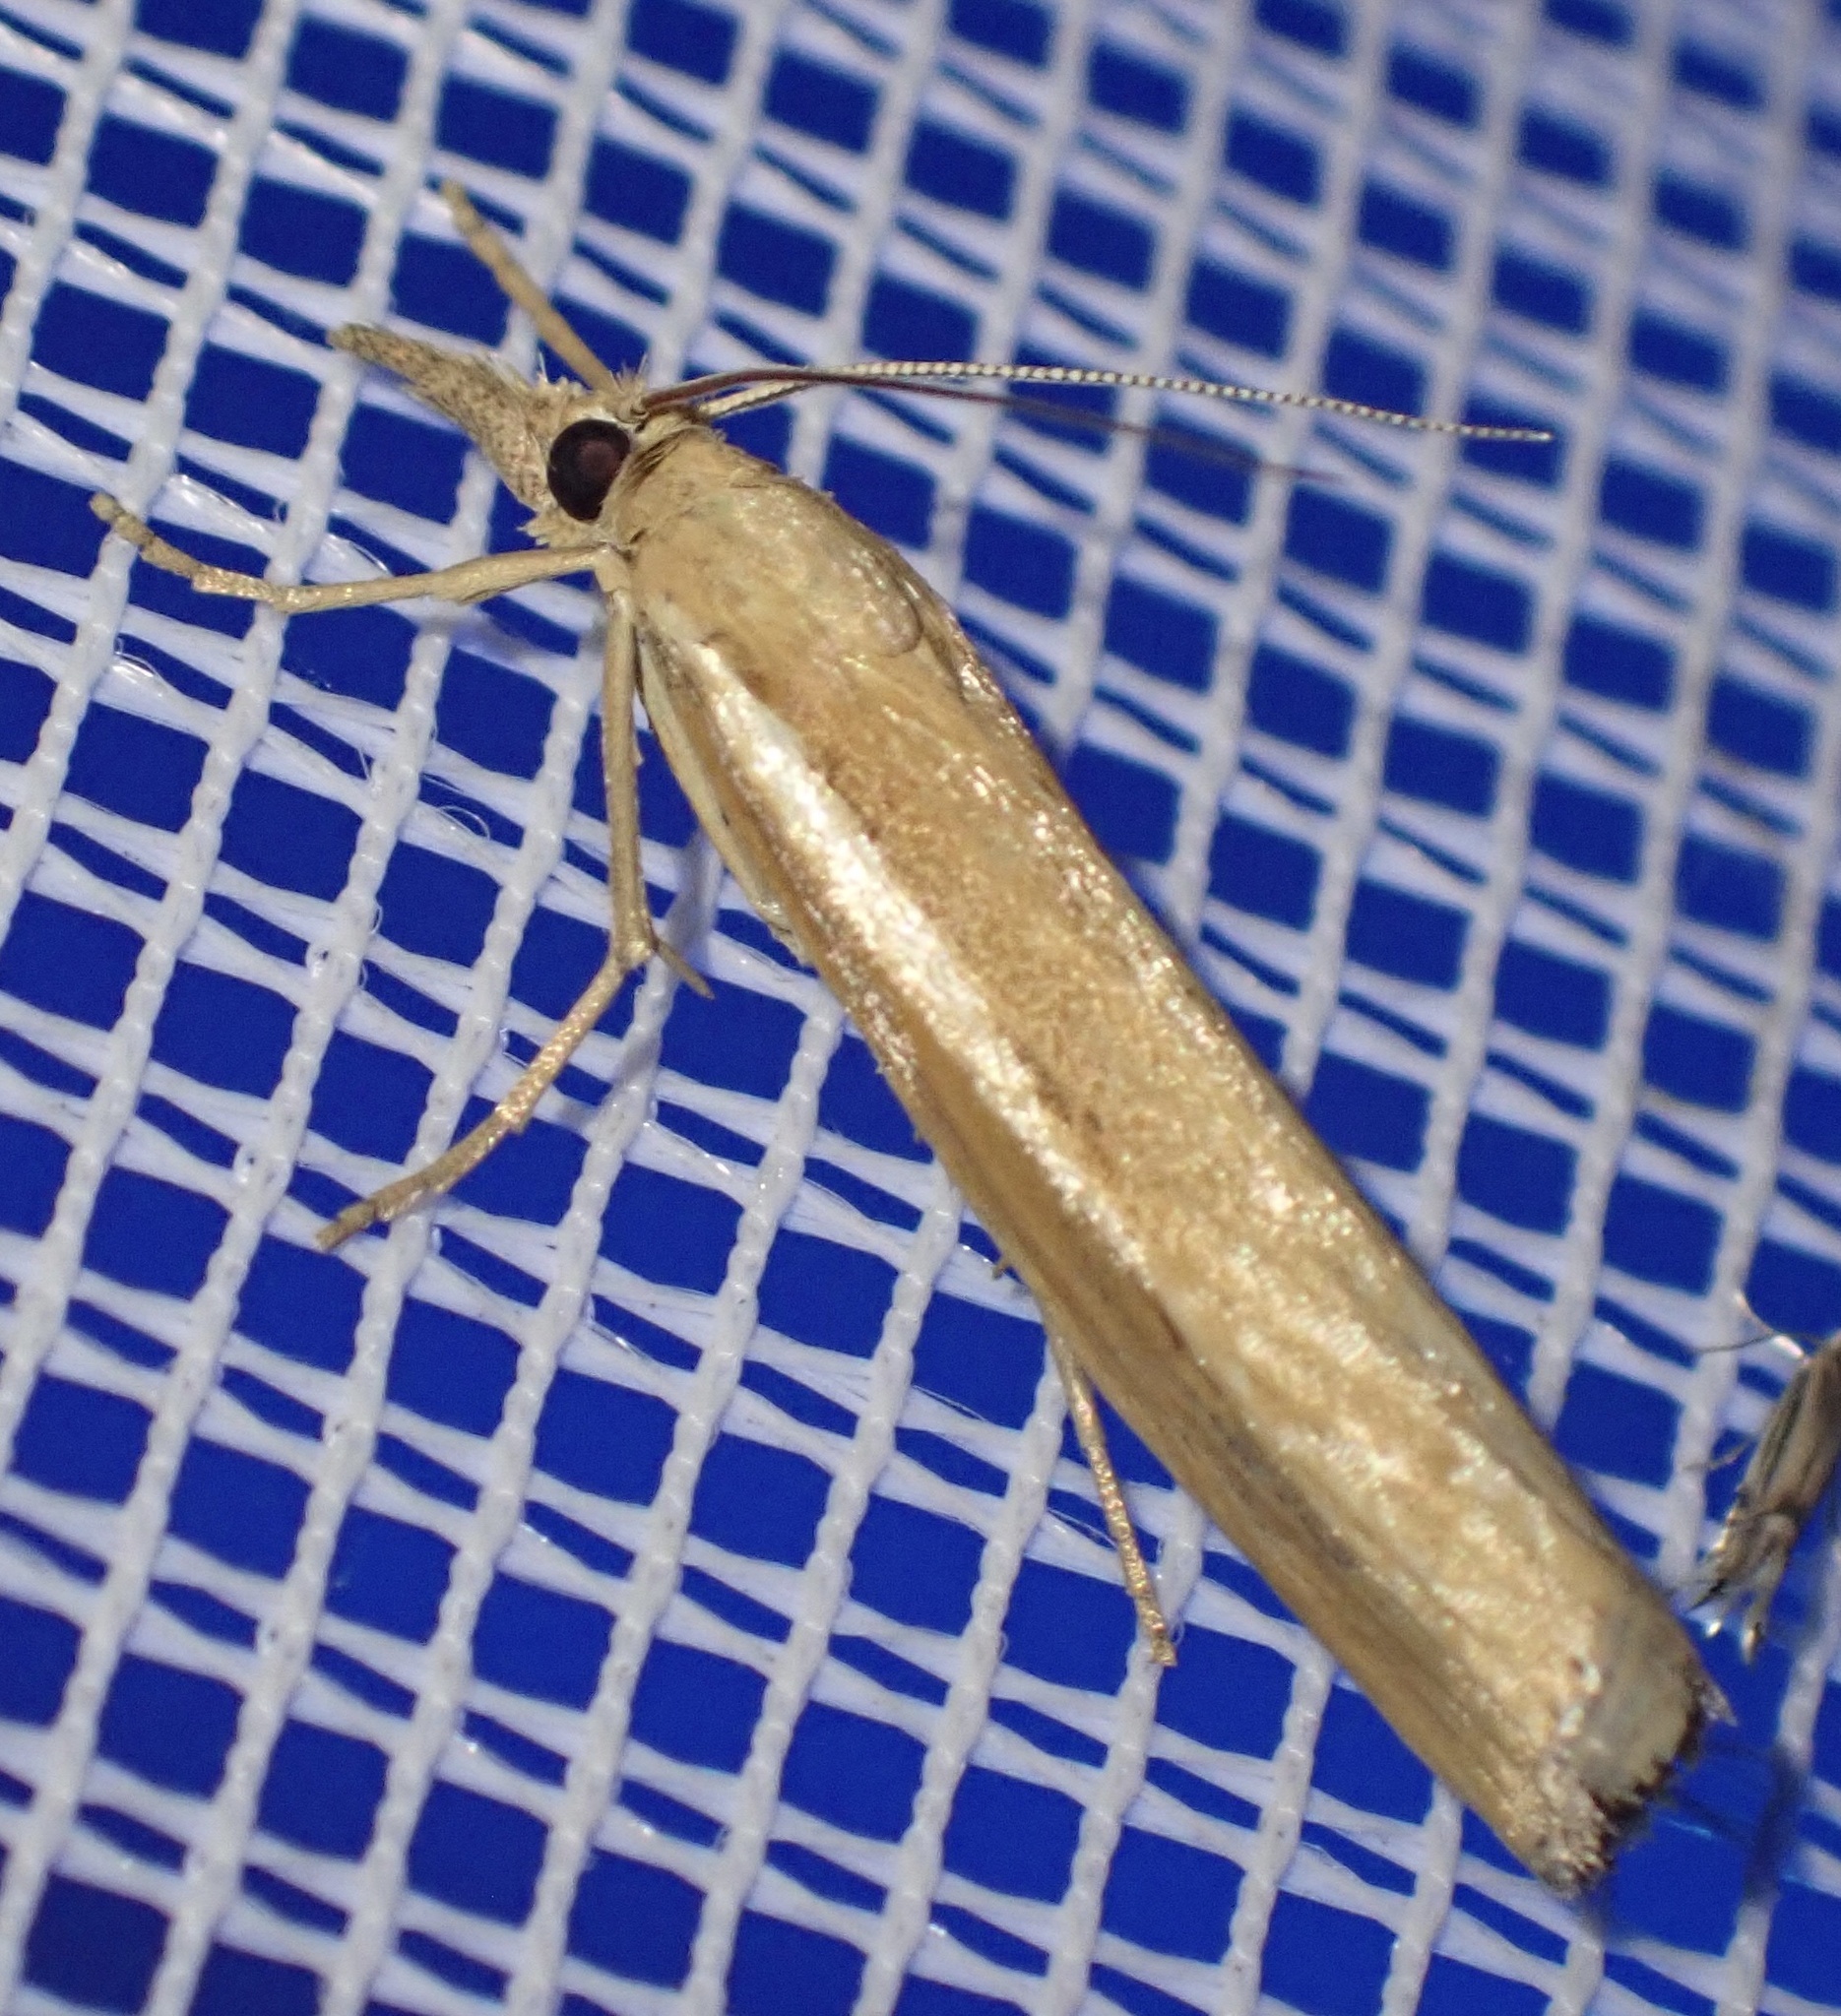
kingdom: Animalia
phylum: Arthropoda
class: Insecta
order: Lepidoptera
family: Crambidae
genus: Agriphila
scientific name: Agriphila tristellus
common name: Common grass-veneer
